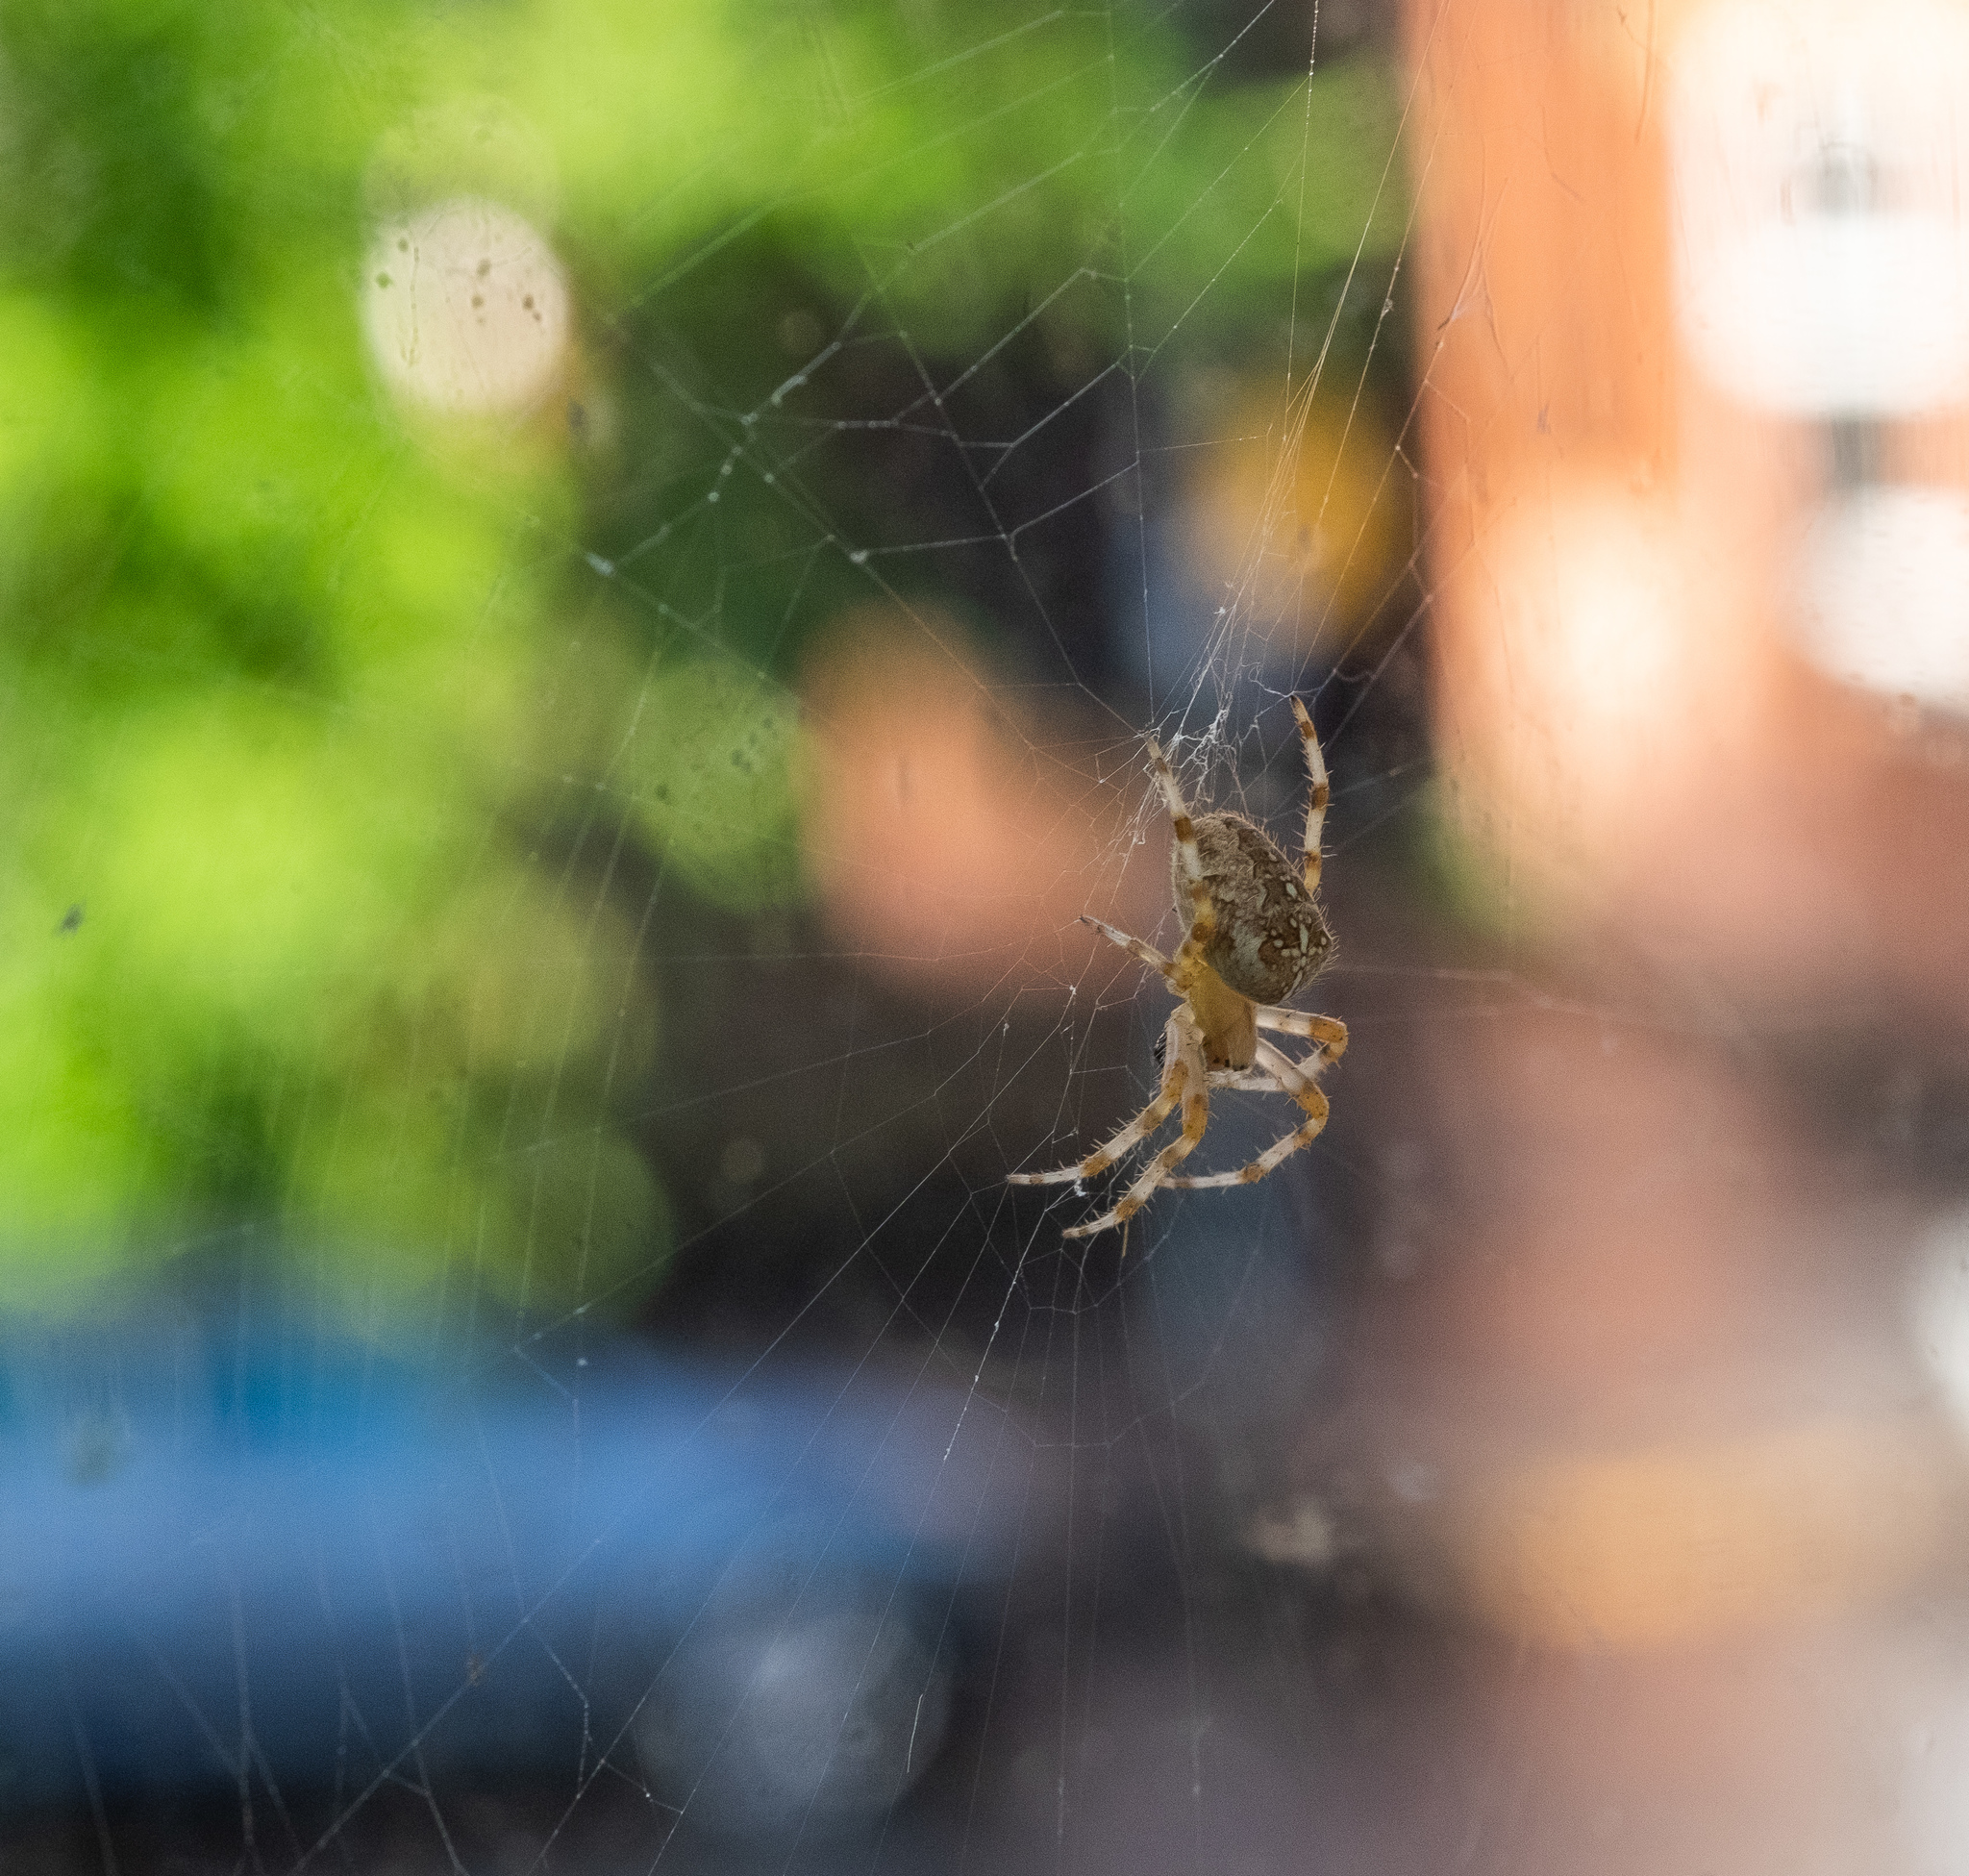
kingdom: Animalia
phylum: Arthropoda
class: Arachnida
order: Araneae
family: Araneidae
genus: Araneus
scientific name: Araneus diadematus
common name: Cross orbweaver
